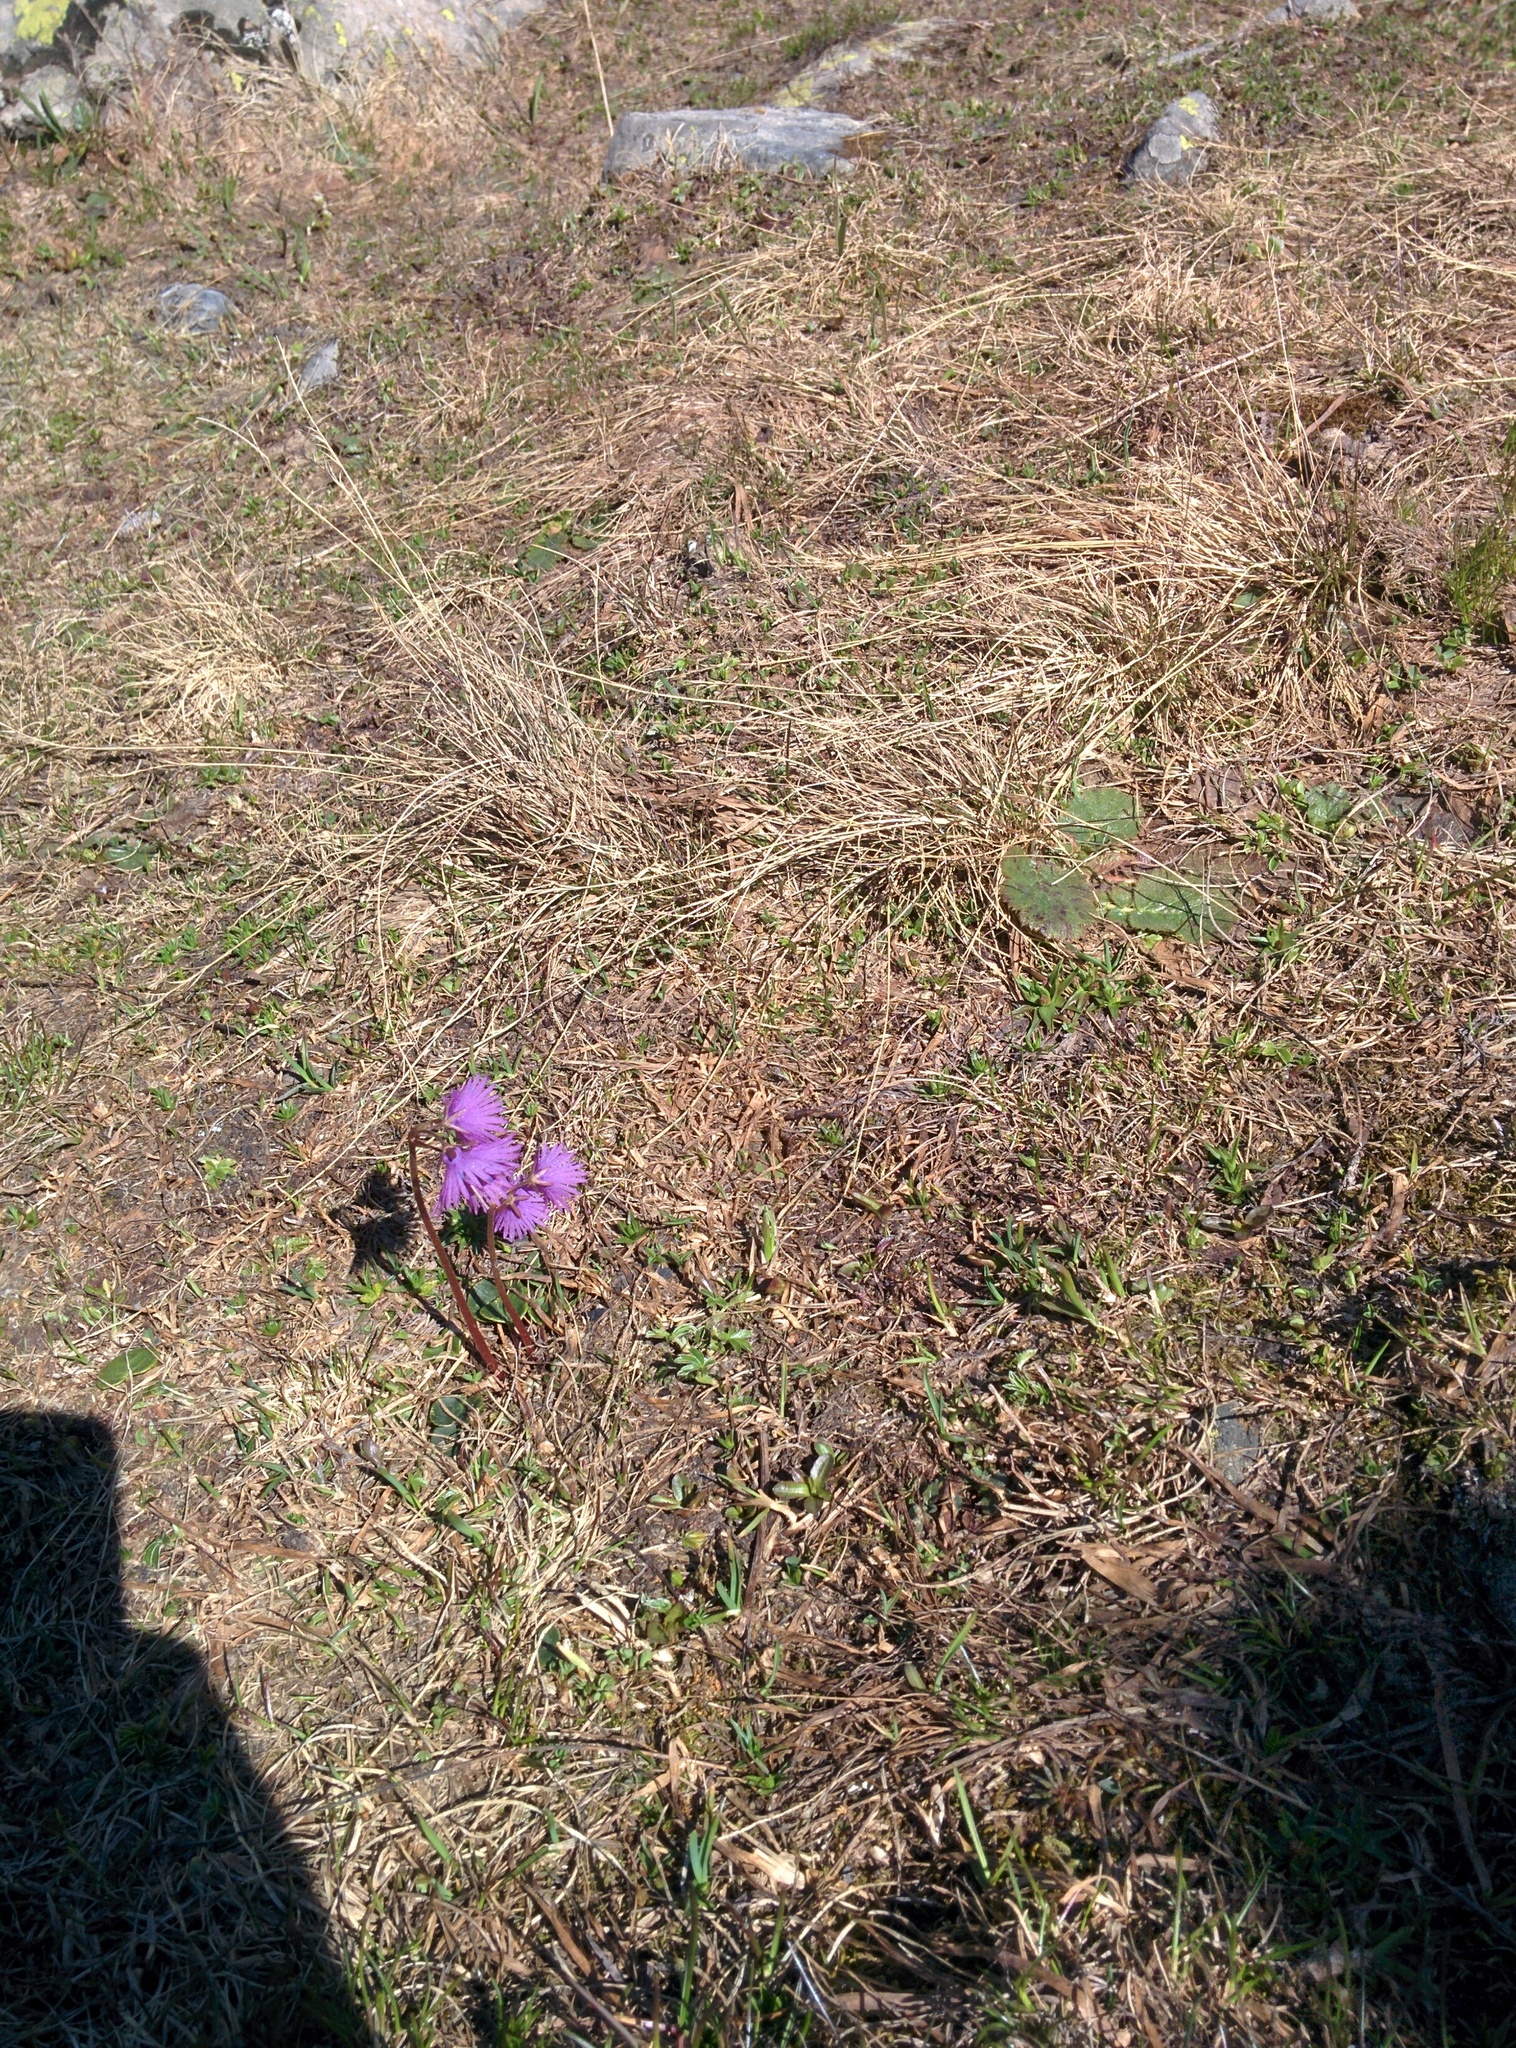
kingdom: Plantae
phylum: Tracheophyta
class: Magnoliopsida
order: Ericales
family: Primulaceae
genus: Soldanella
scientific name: Soldanella alpina
